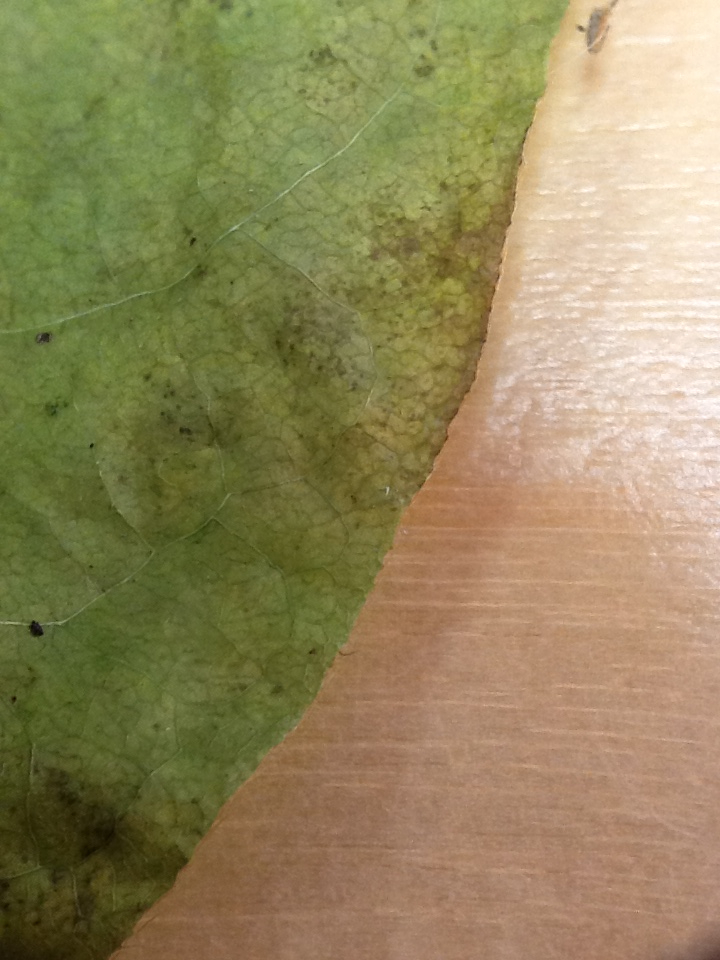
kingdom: Plantae
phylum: Tracheophyta
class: Magnoliopsida
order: Dipsacales
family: Caprifoliaceae
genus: Lonicera
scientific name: Lonicera canadensis
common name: American fly-honeysuckle
